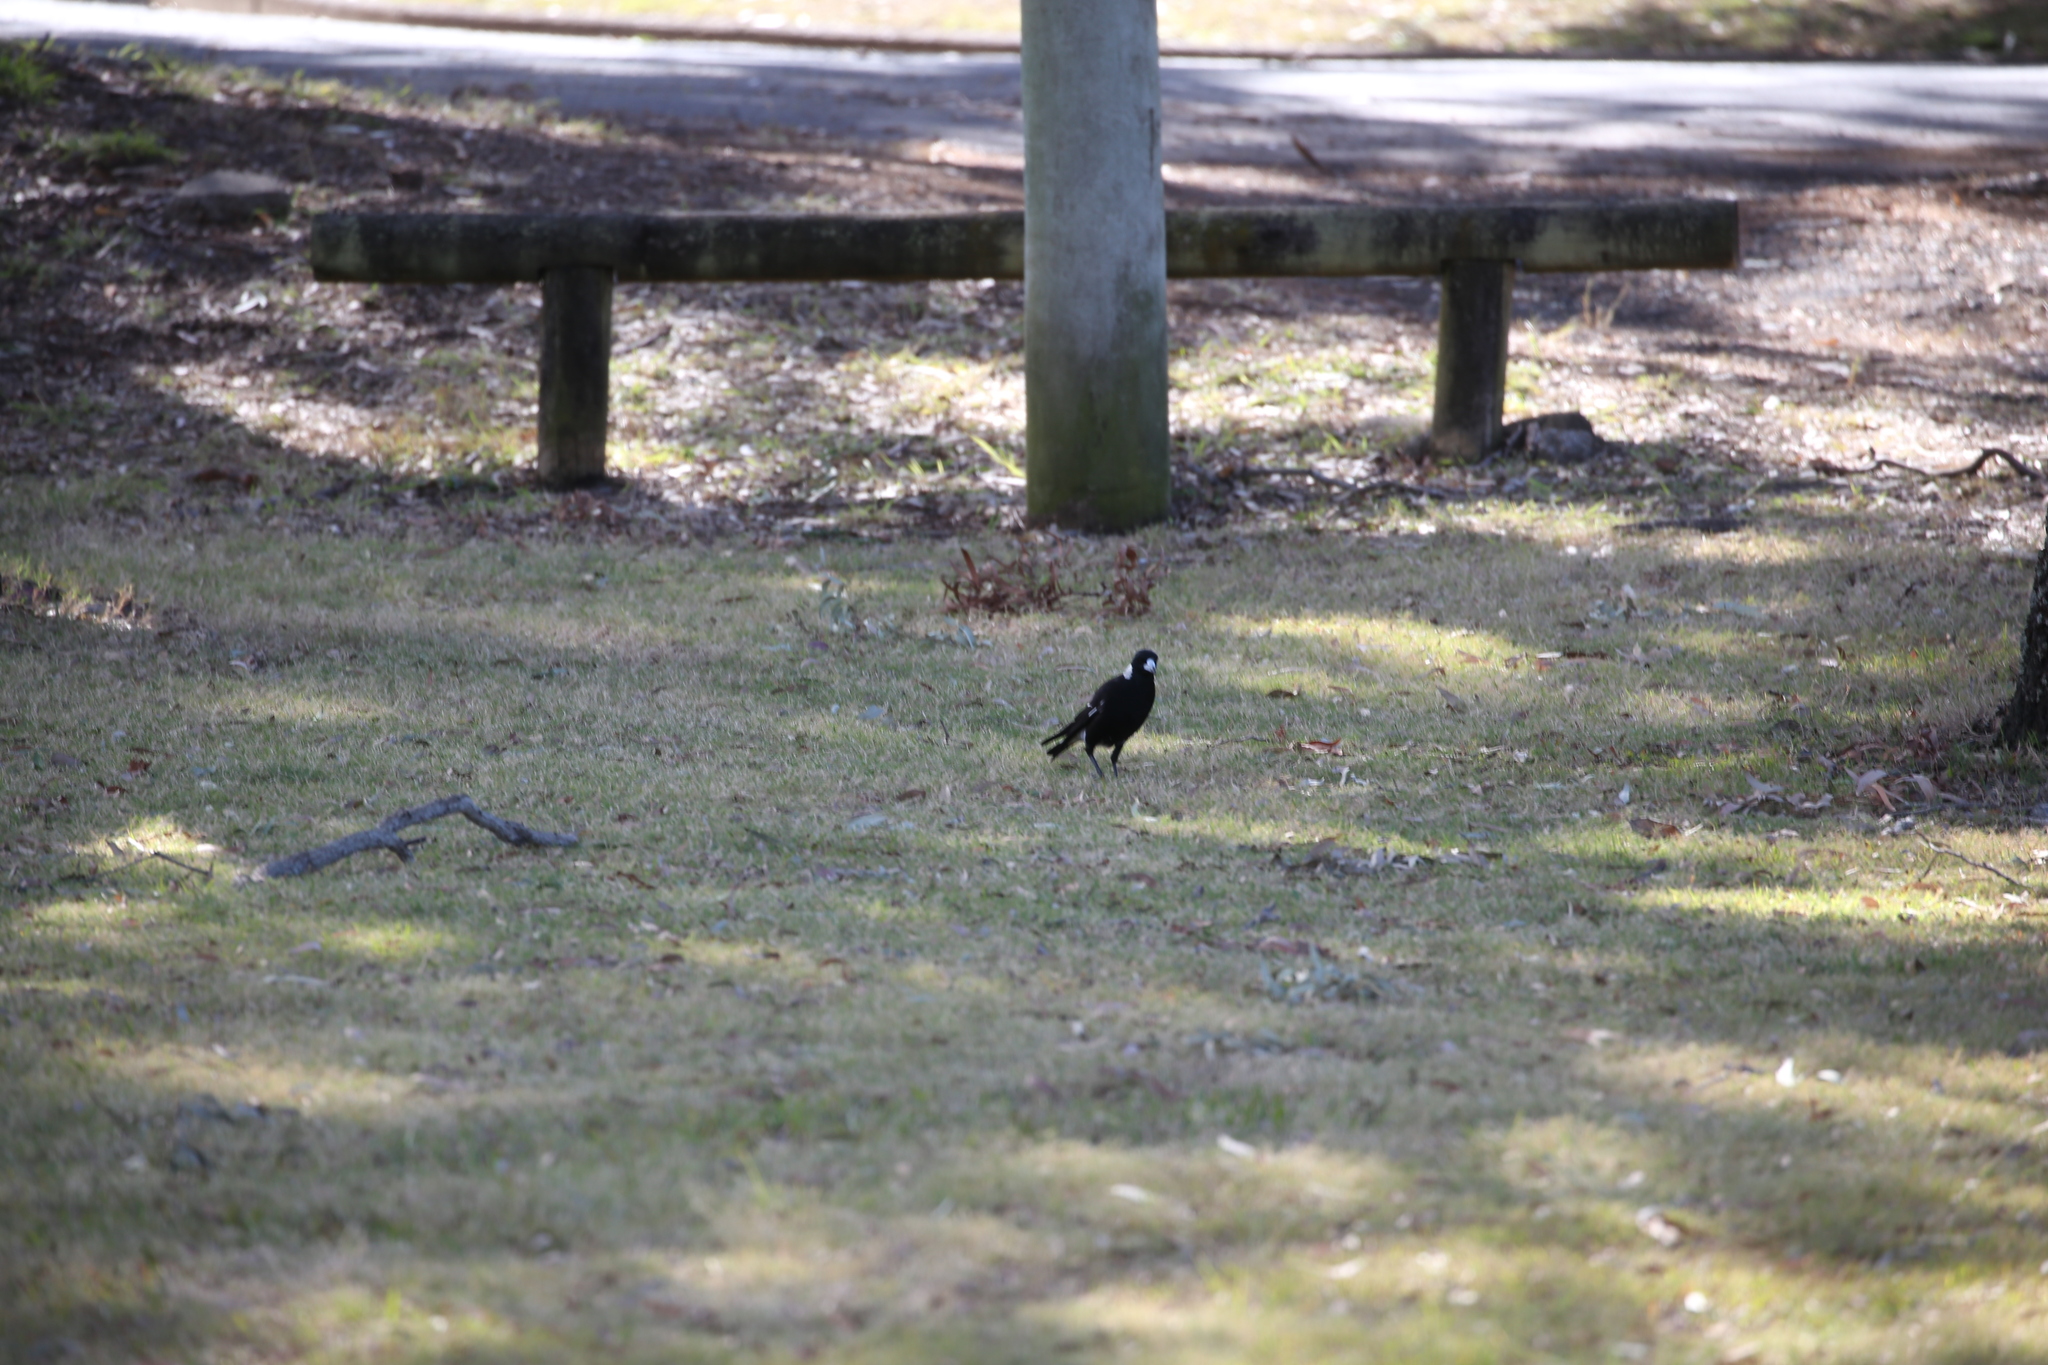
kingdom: Animalia
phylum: Chordata
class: Aves
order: Passeriformes
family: Cracticidae
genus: Gymnorhina
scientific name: Gymnorhina tibicen
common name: Australian magpie
